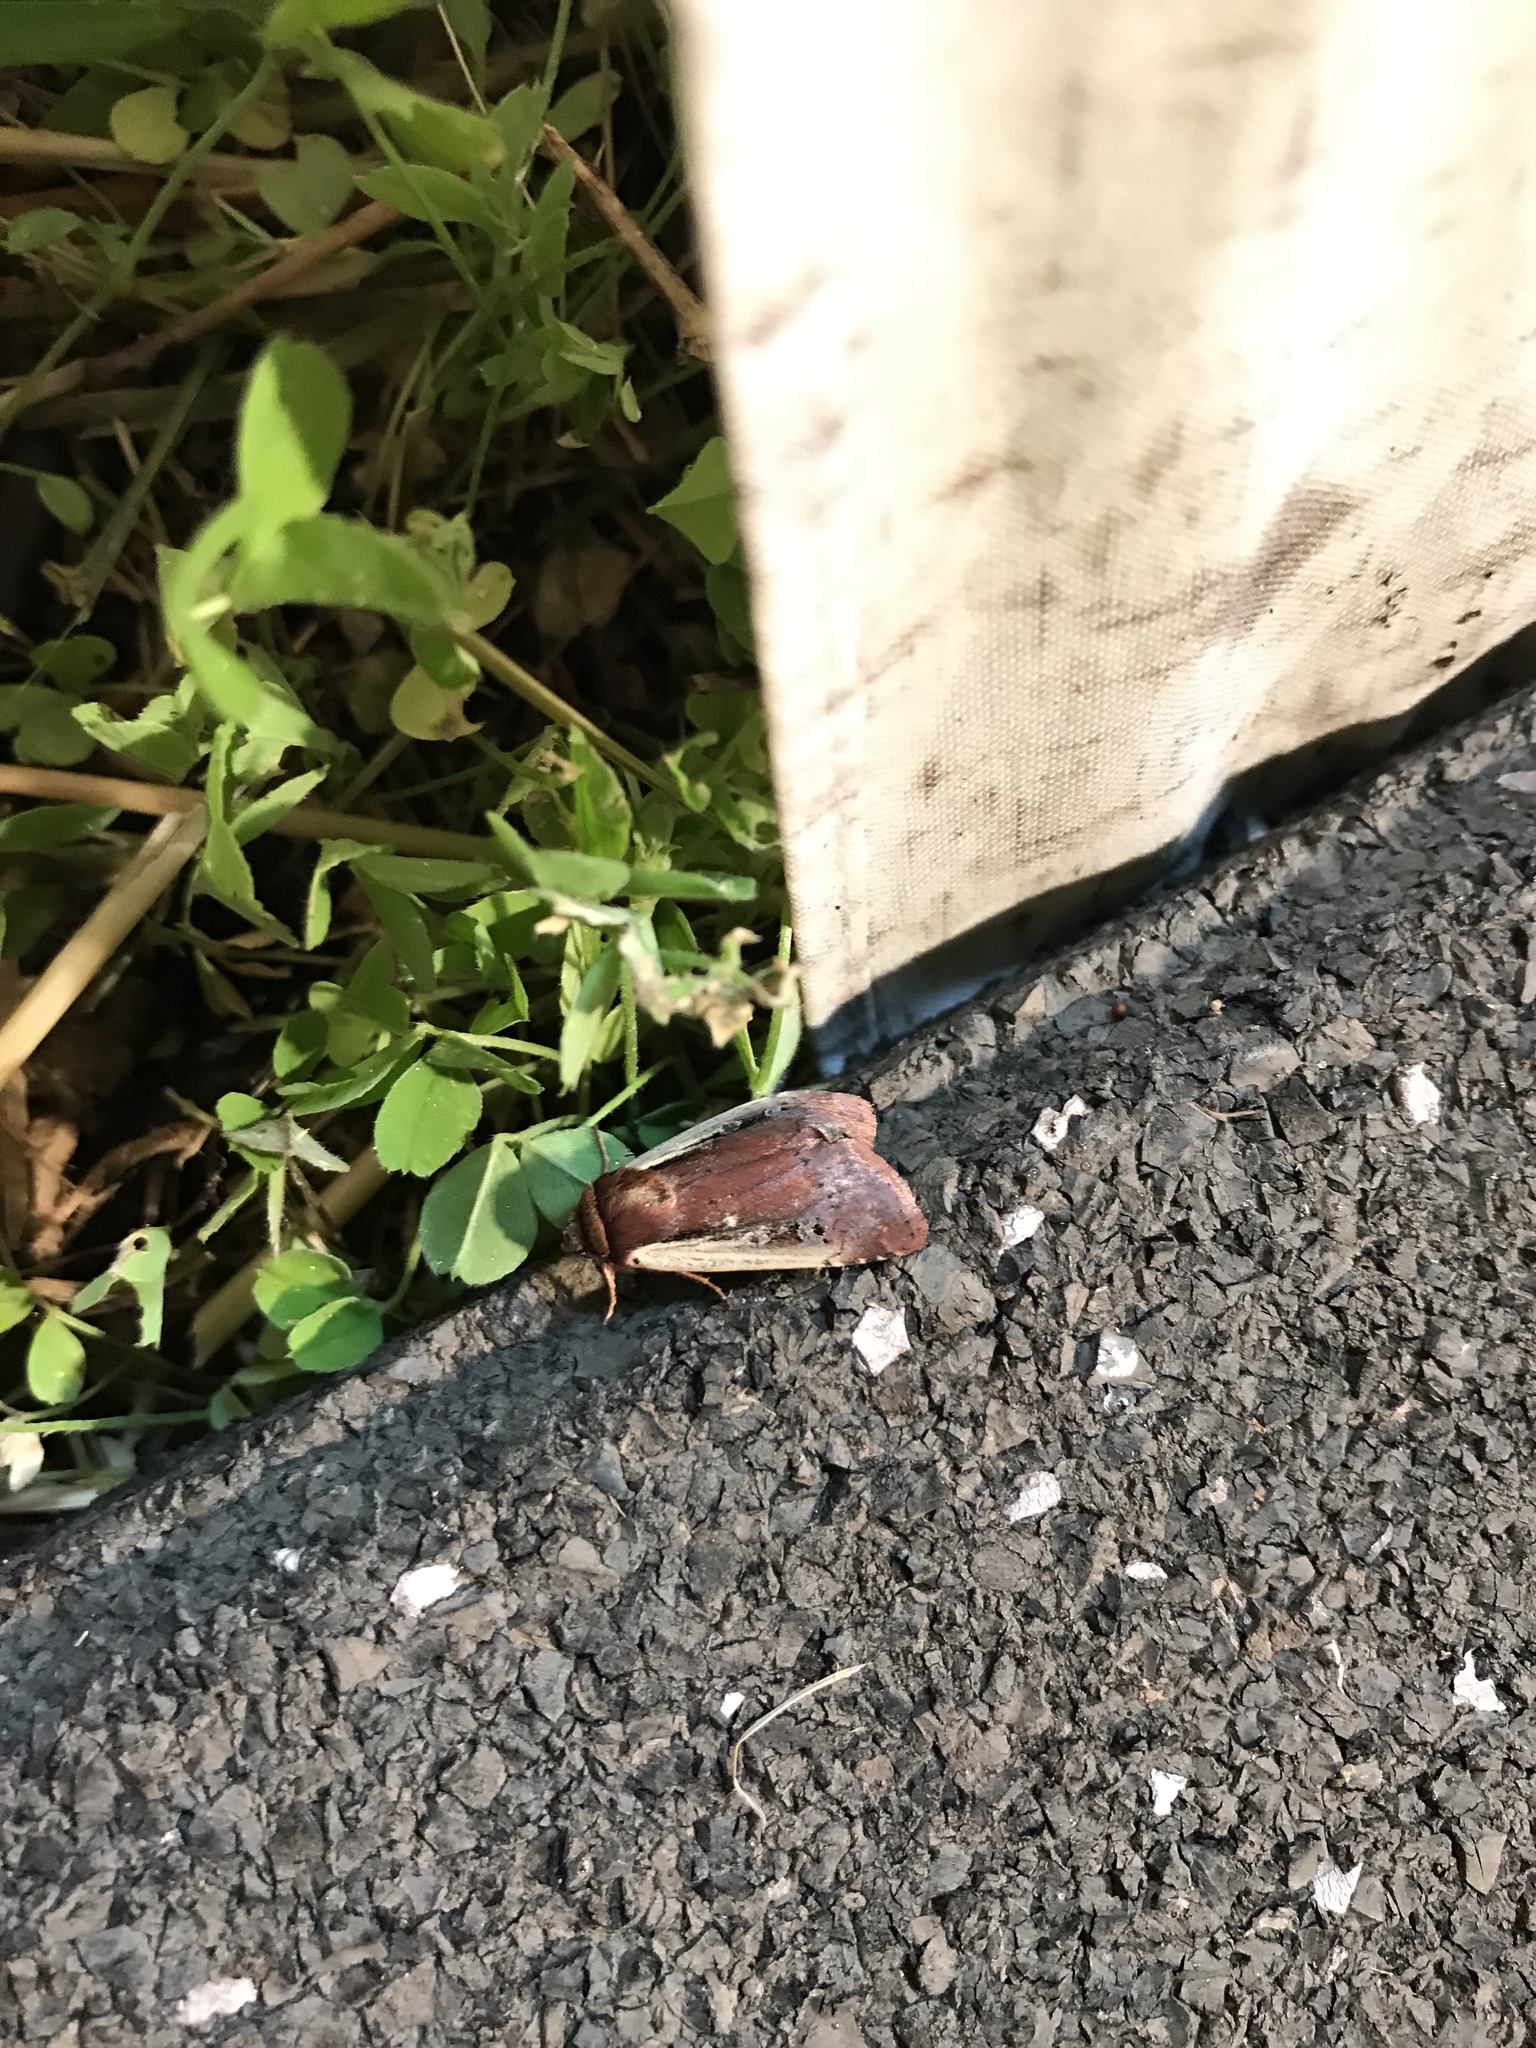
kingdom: Animalia
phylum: Arthropoda
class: Insecta
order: Lepidoptera
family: Noctuidae
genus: Ochropleura
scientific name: Ochropleura implecta
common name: Flame-shouldered dart
